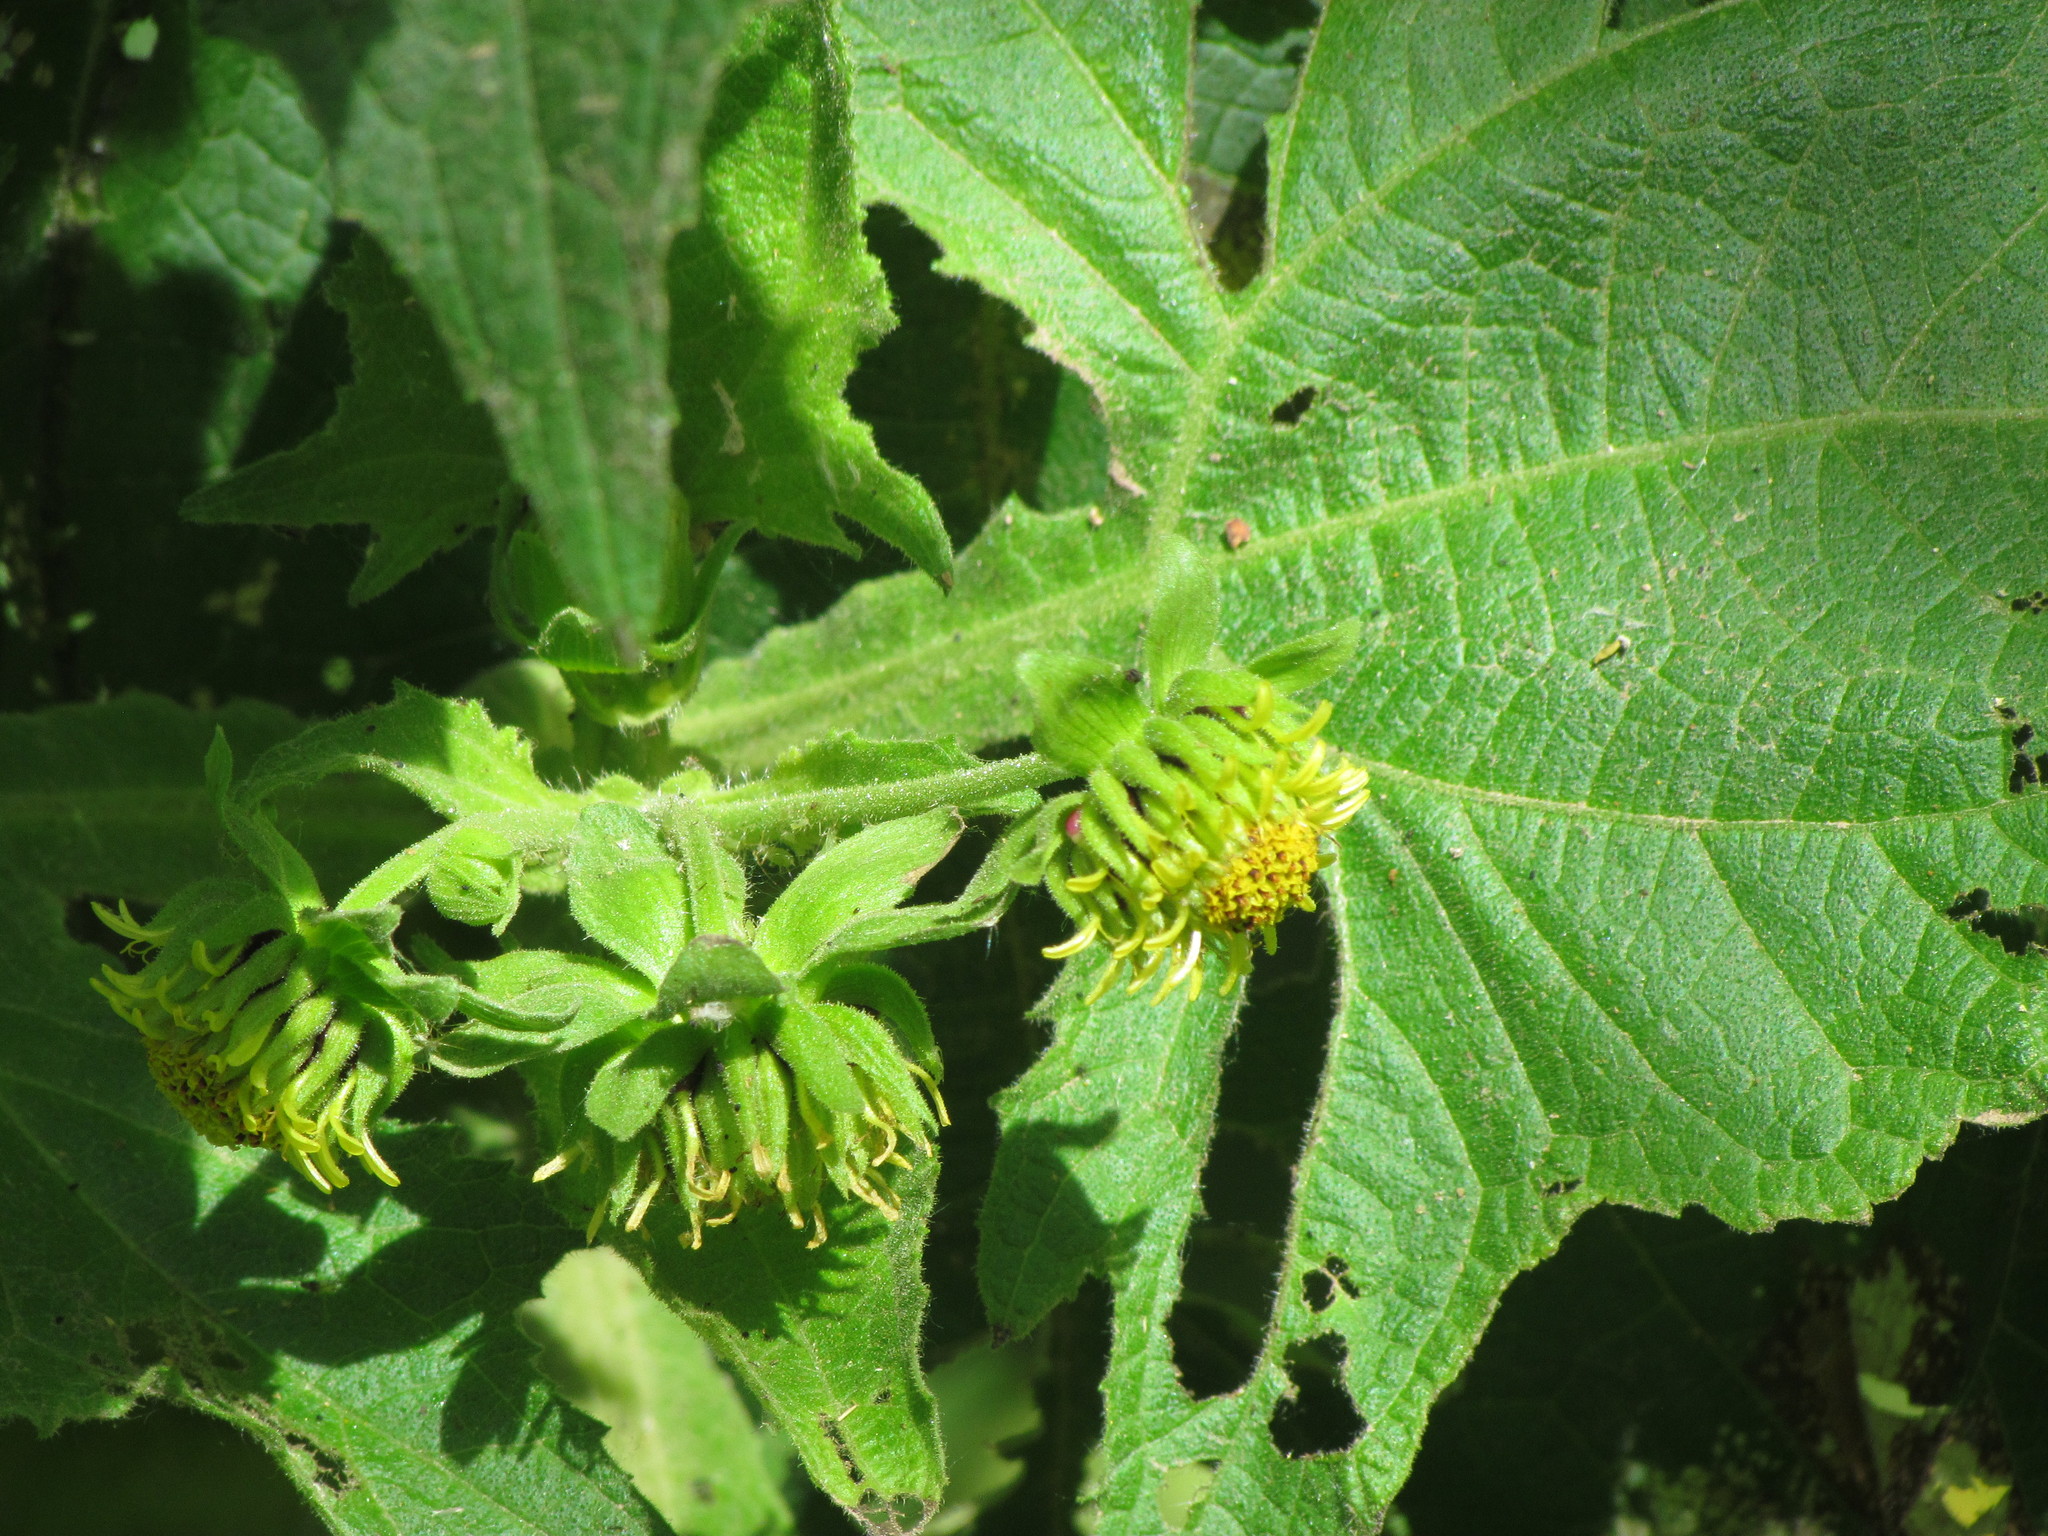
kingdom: Plantae
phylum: Tracheophyta
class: Magnoliopsida
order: Asterales
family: Asteraceae
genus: Smallanthus
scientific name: Smallanthus connatus
